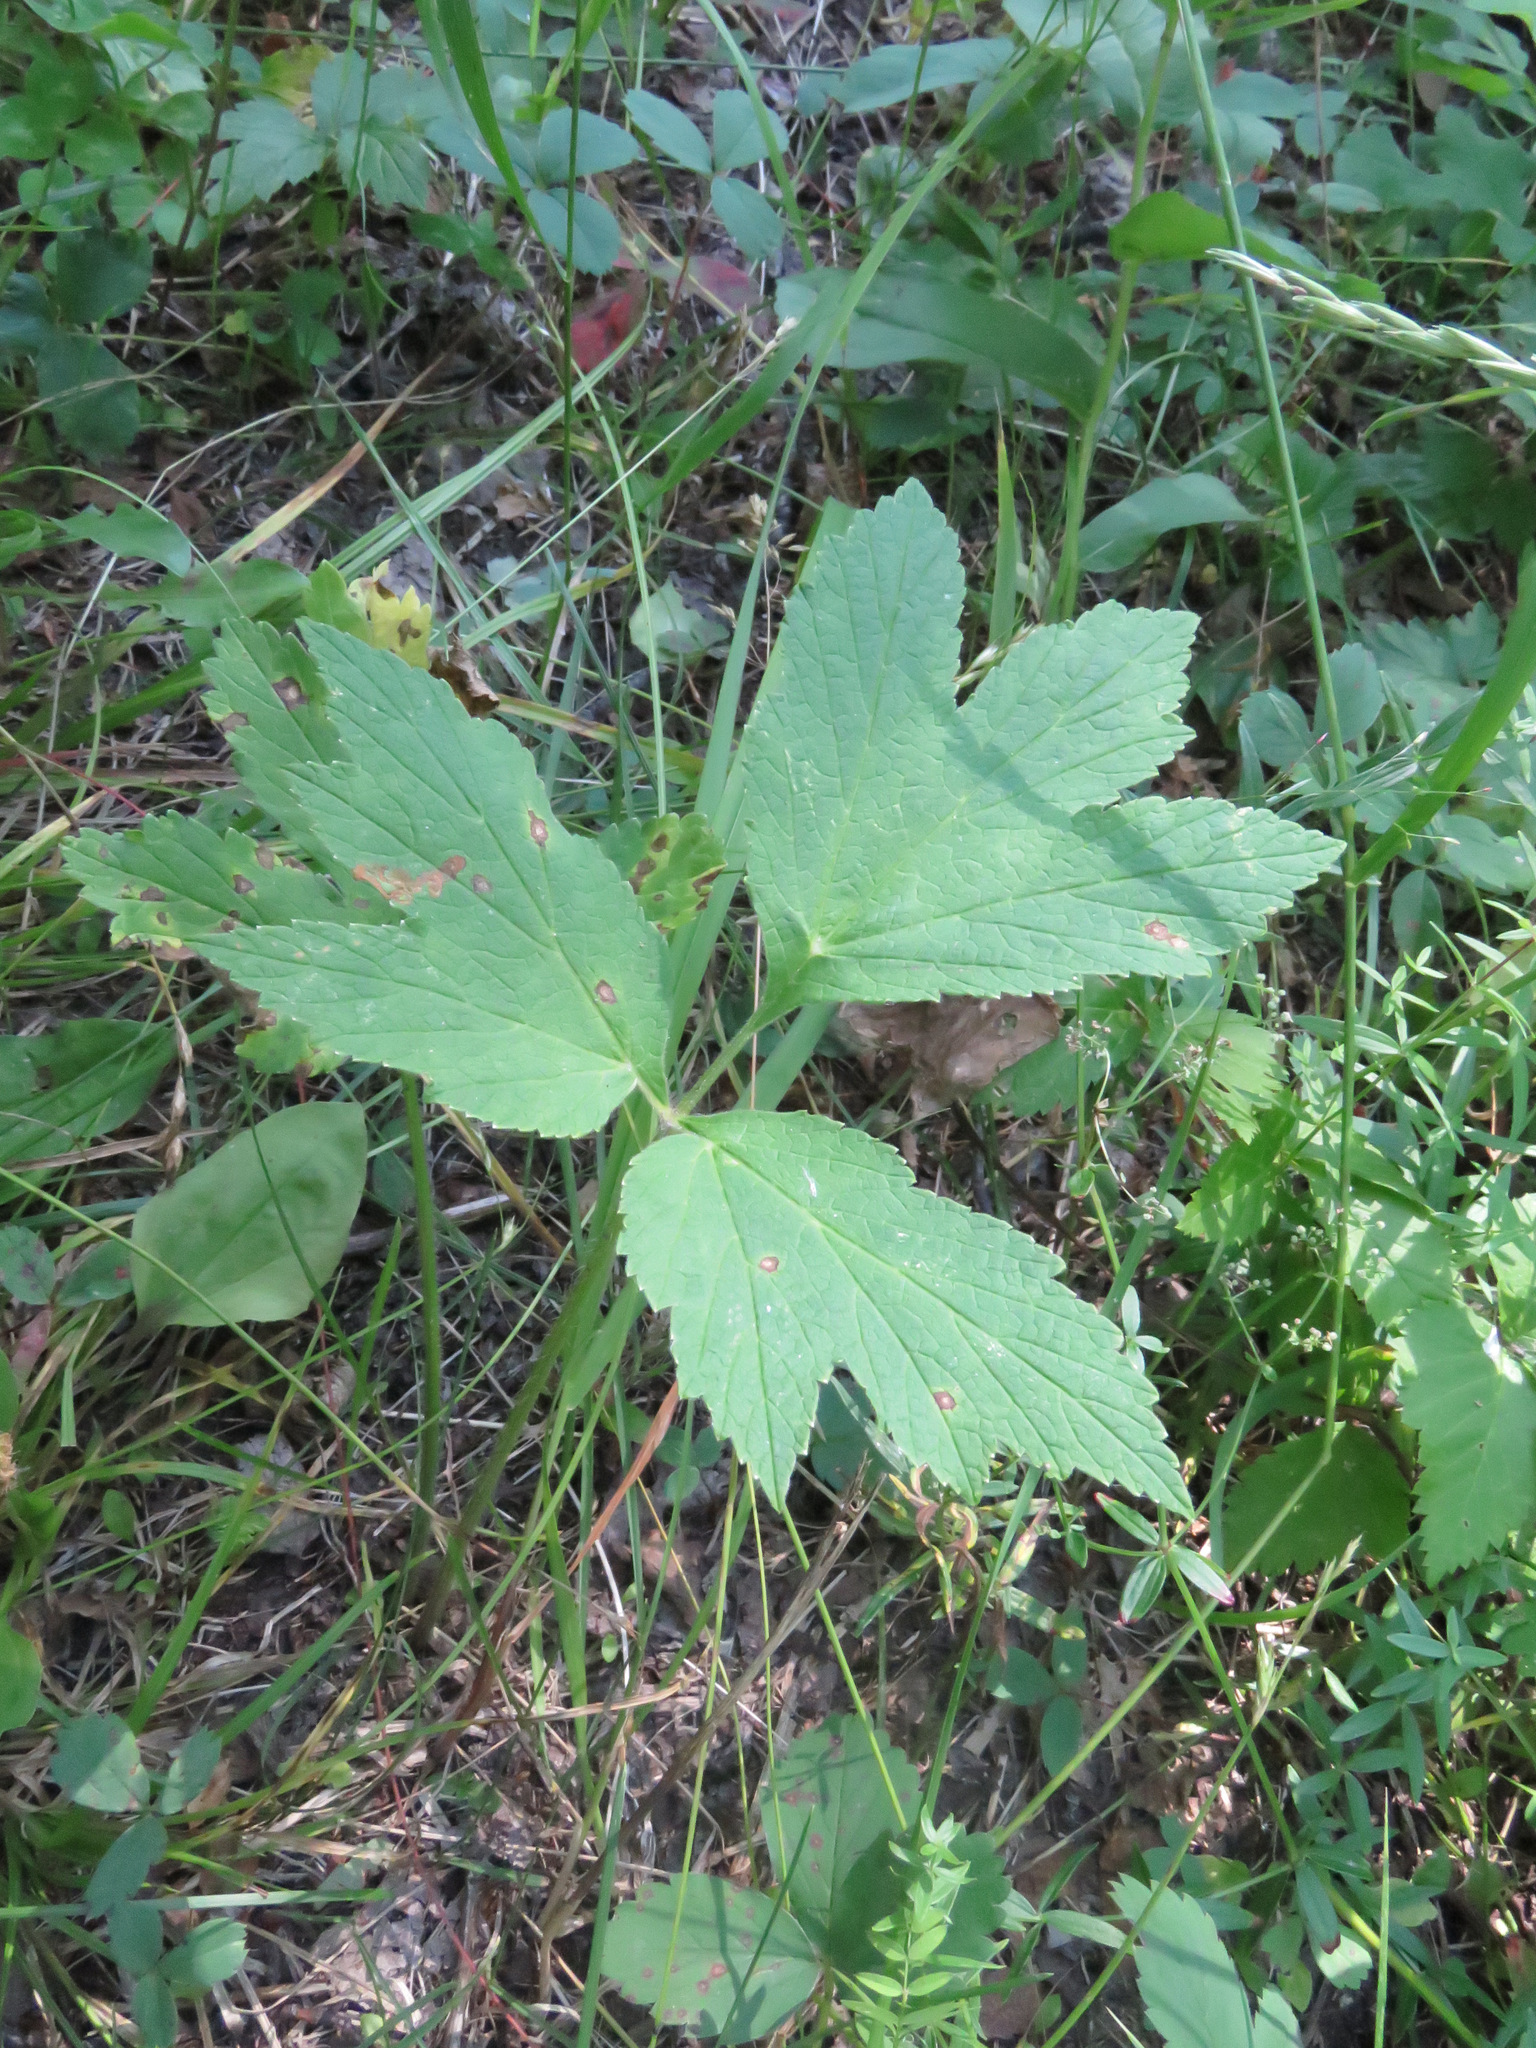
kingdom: Plantae
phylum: Tracheophyta
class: Magnoliopsida
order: Apiales
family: Apiaceae
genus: Heracleum
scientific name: Heracleum maximum
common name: American cow parsnip
